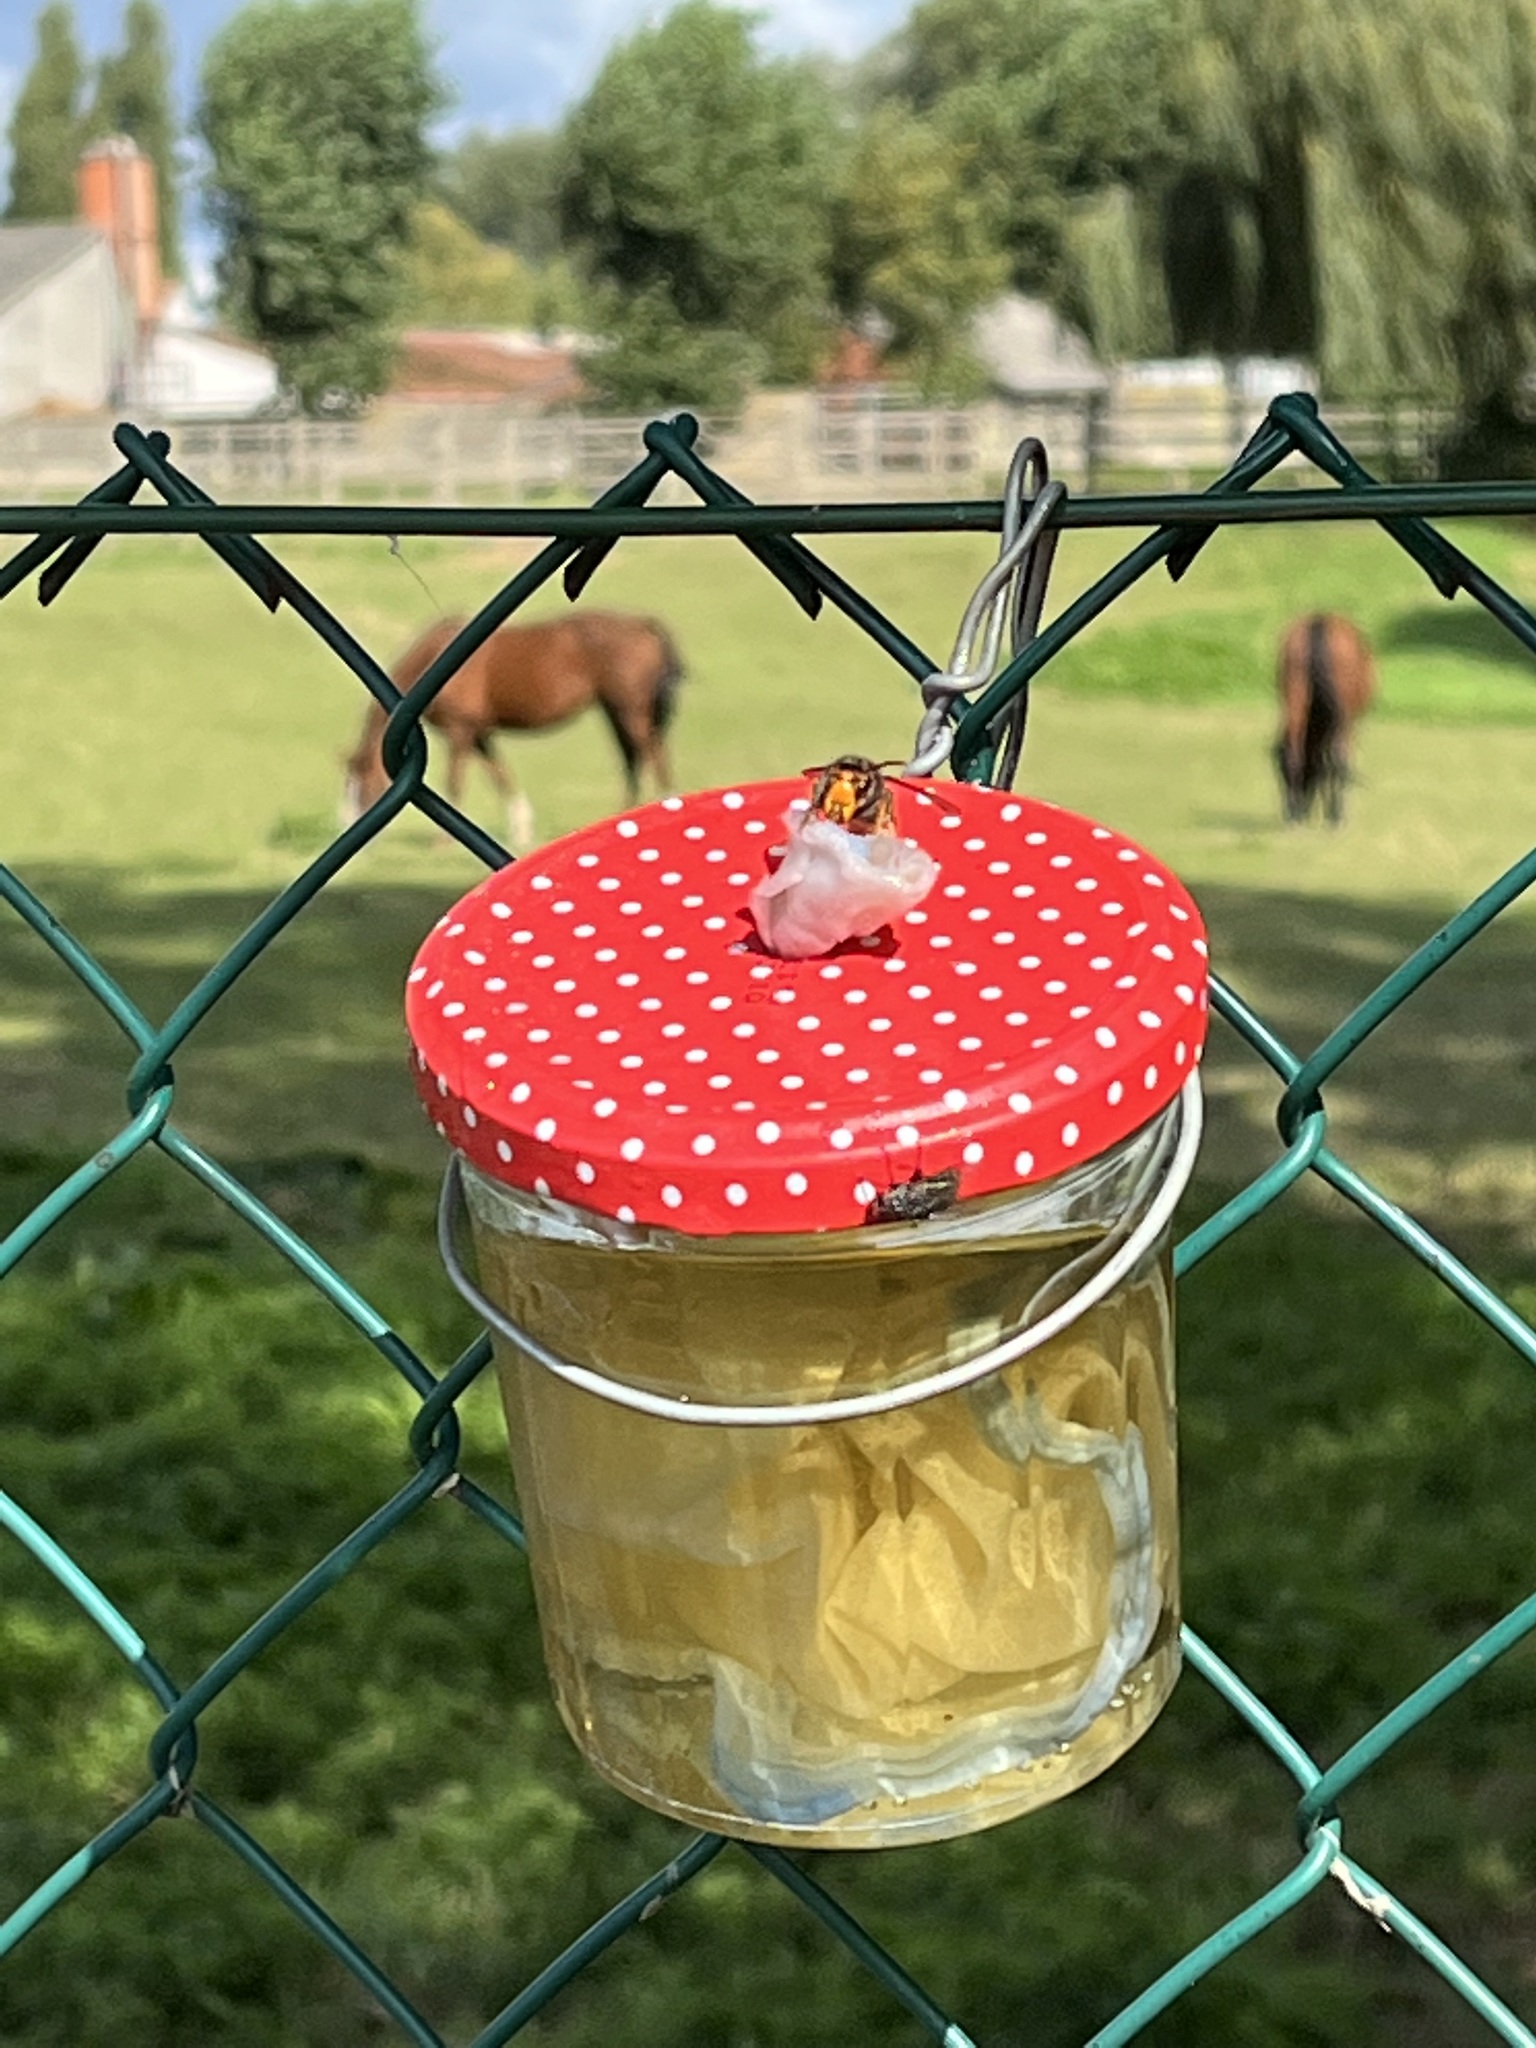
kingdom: Animalia
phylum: Arthropoda
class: Insecta
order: Hymenoptera
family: Vespidae
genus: Vespa
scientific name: Vespa velutina
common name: Asian hornet
